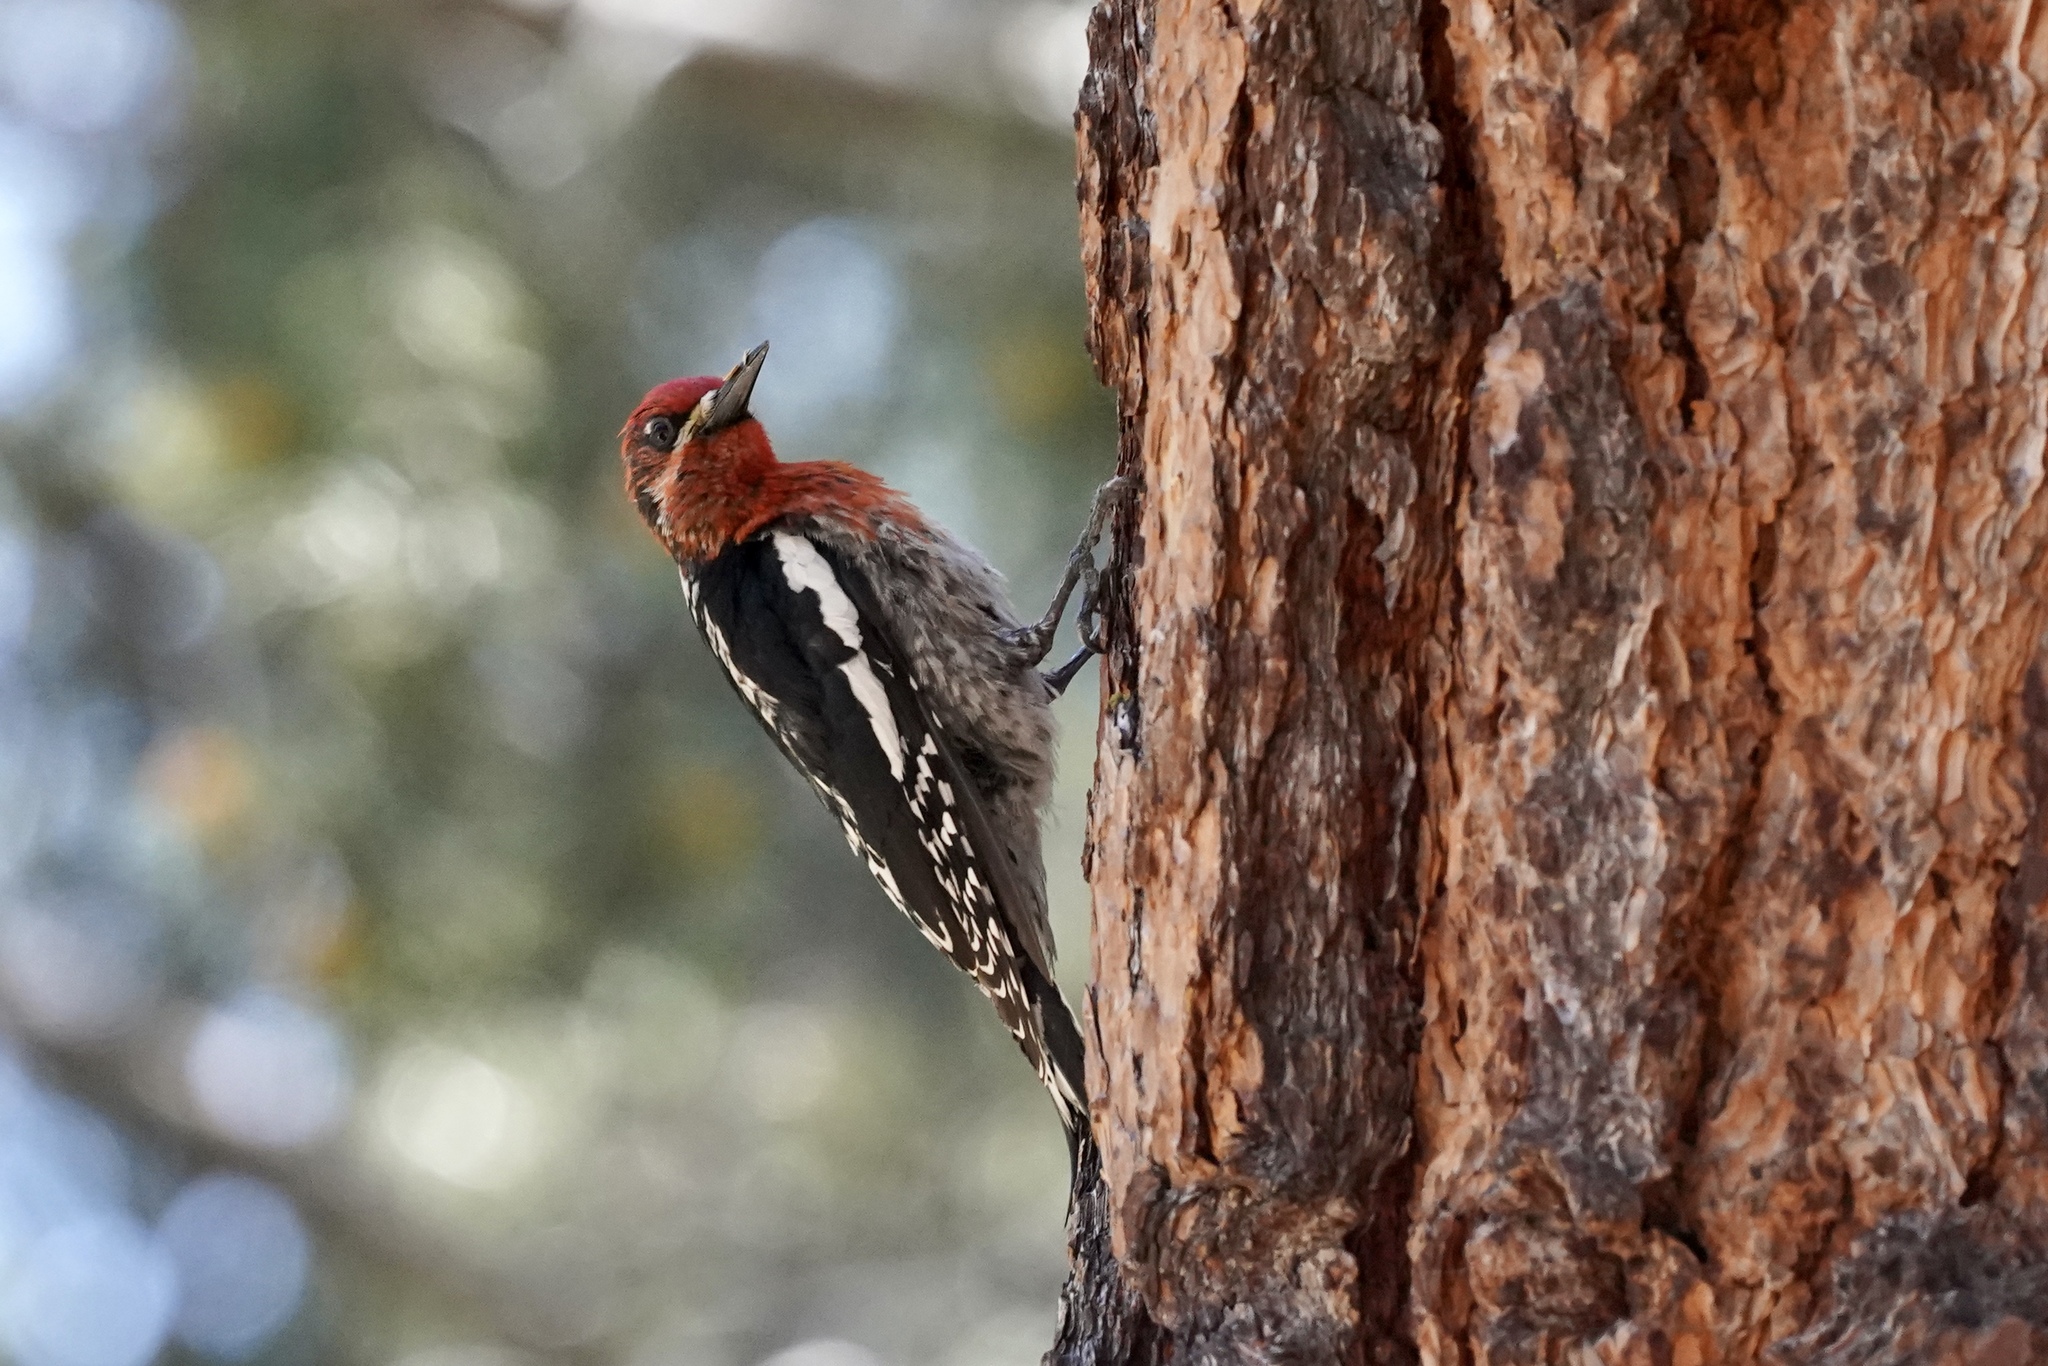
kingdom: Animalia
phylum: Chordata
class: Aves
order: Piciformes
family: Picidae
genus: Sphyrapicus
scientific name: Sphyrapicus ruber
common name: Red-breasted sapsucker
